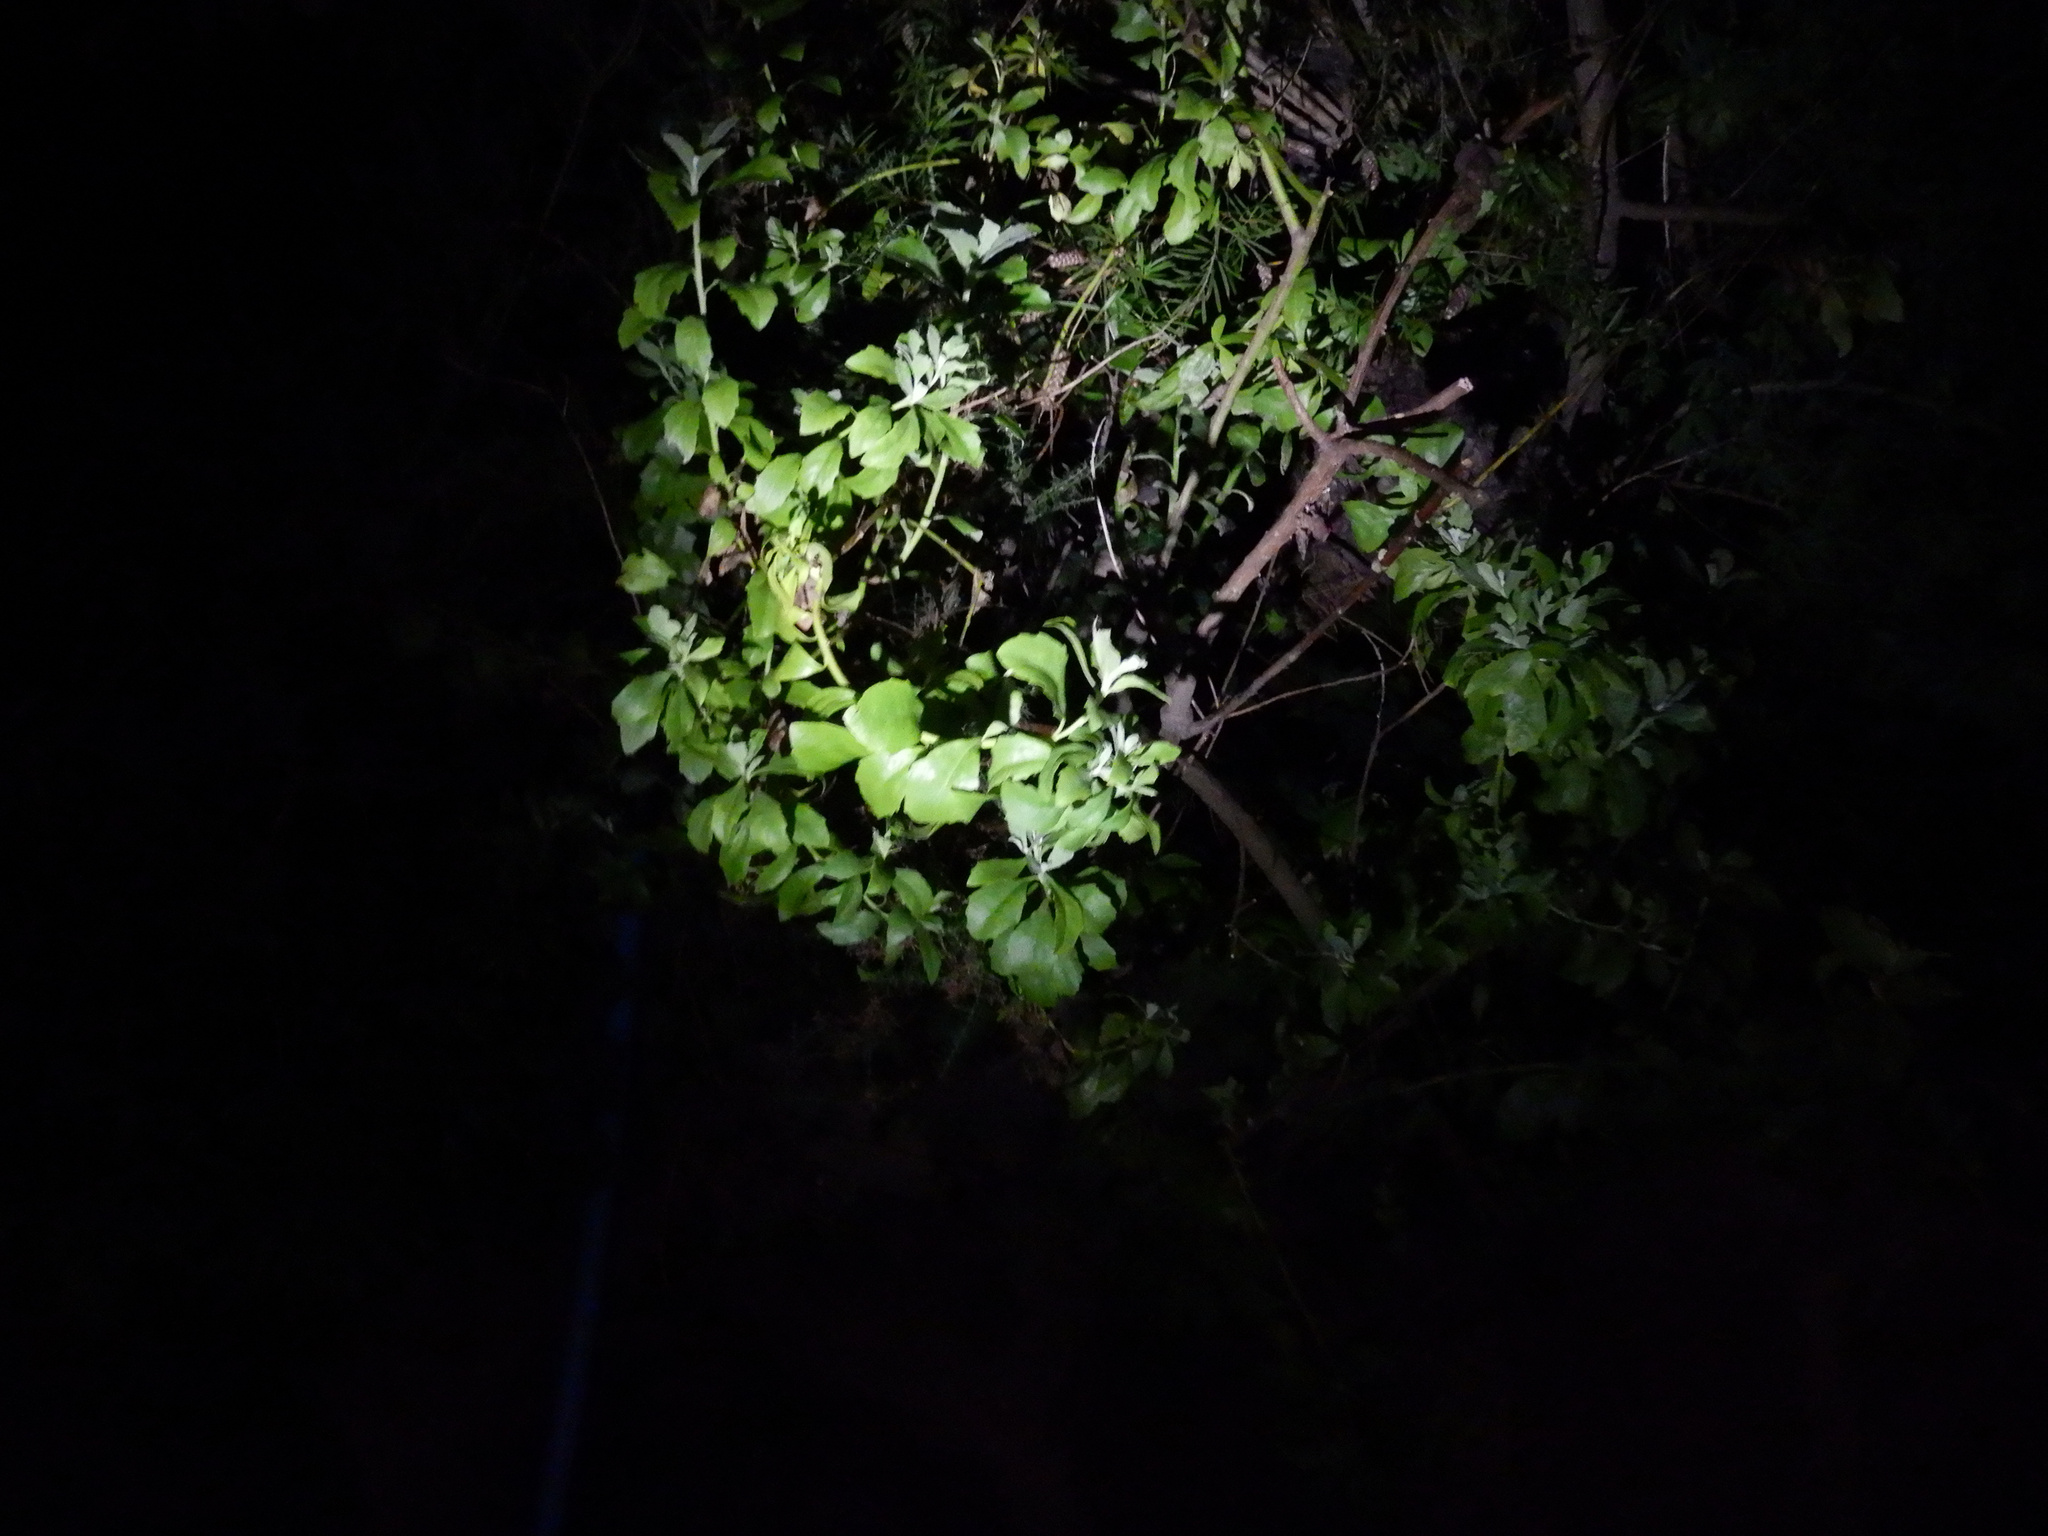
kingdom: Plantae
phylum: Tracheophyta
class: Magnoliopsida
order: Asterales
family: Asteraceae
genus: Osteospermum
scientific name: Osteospermum moniliferum
